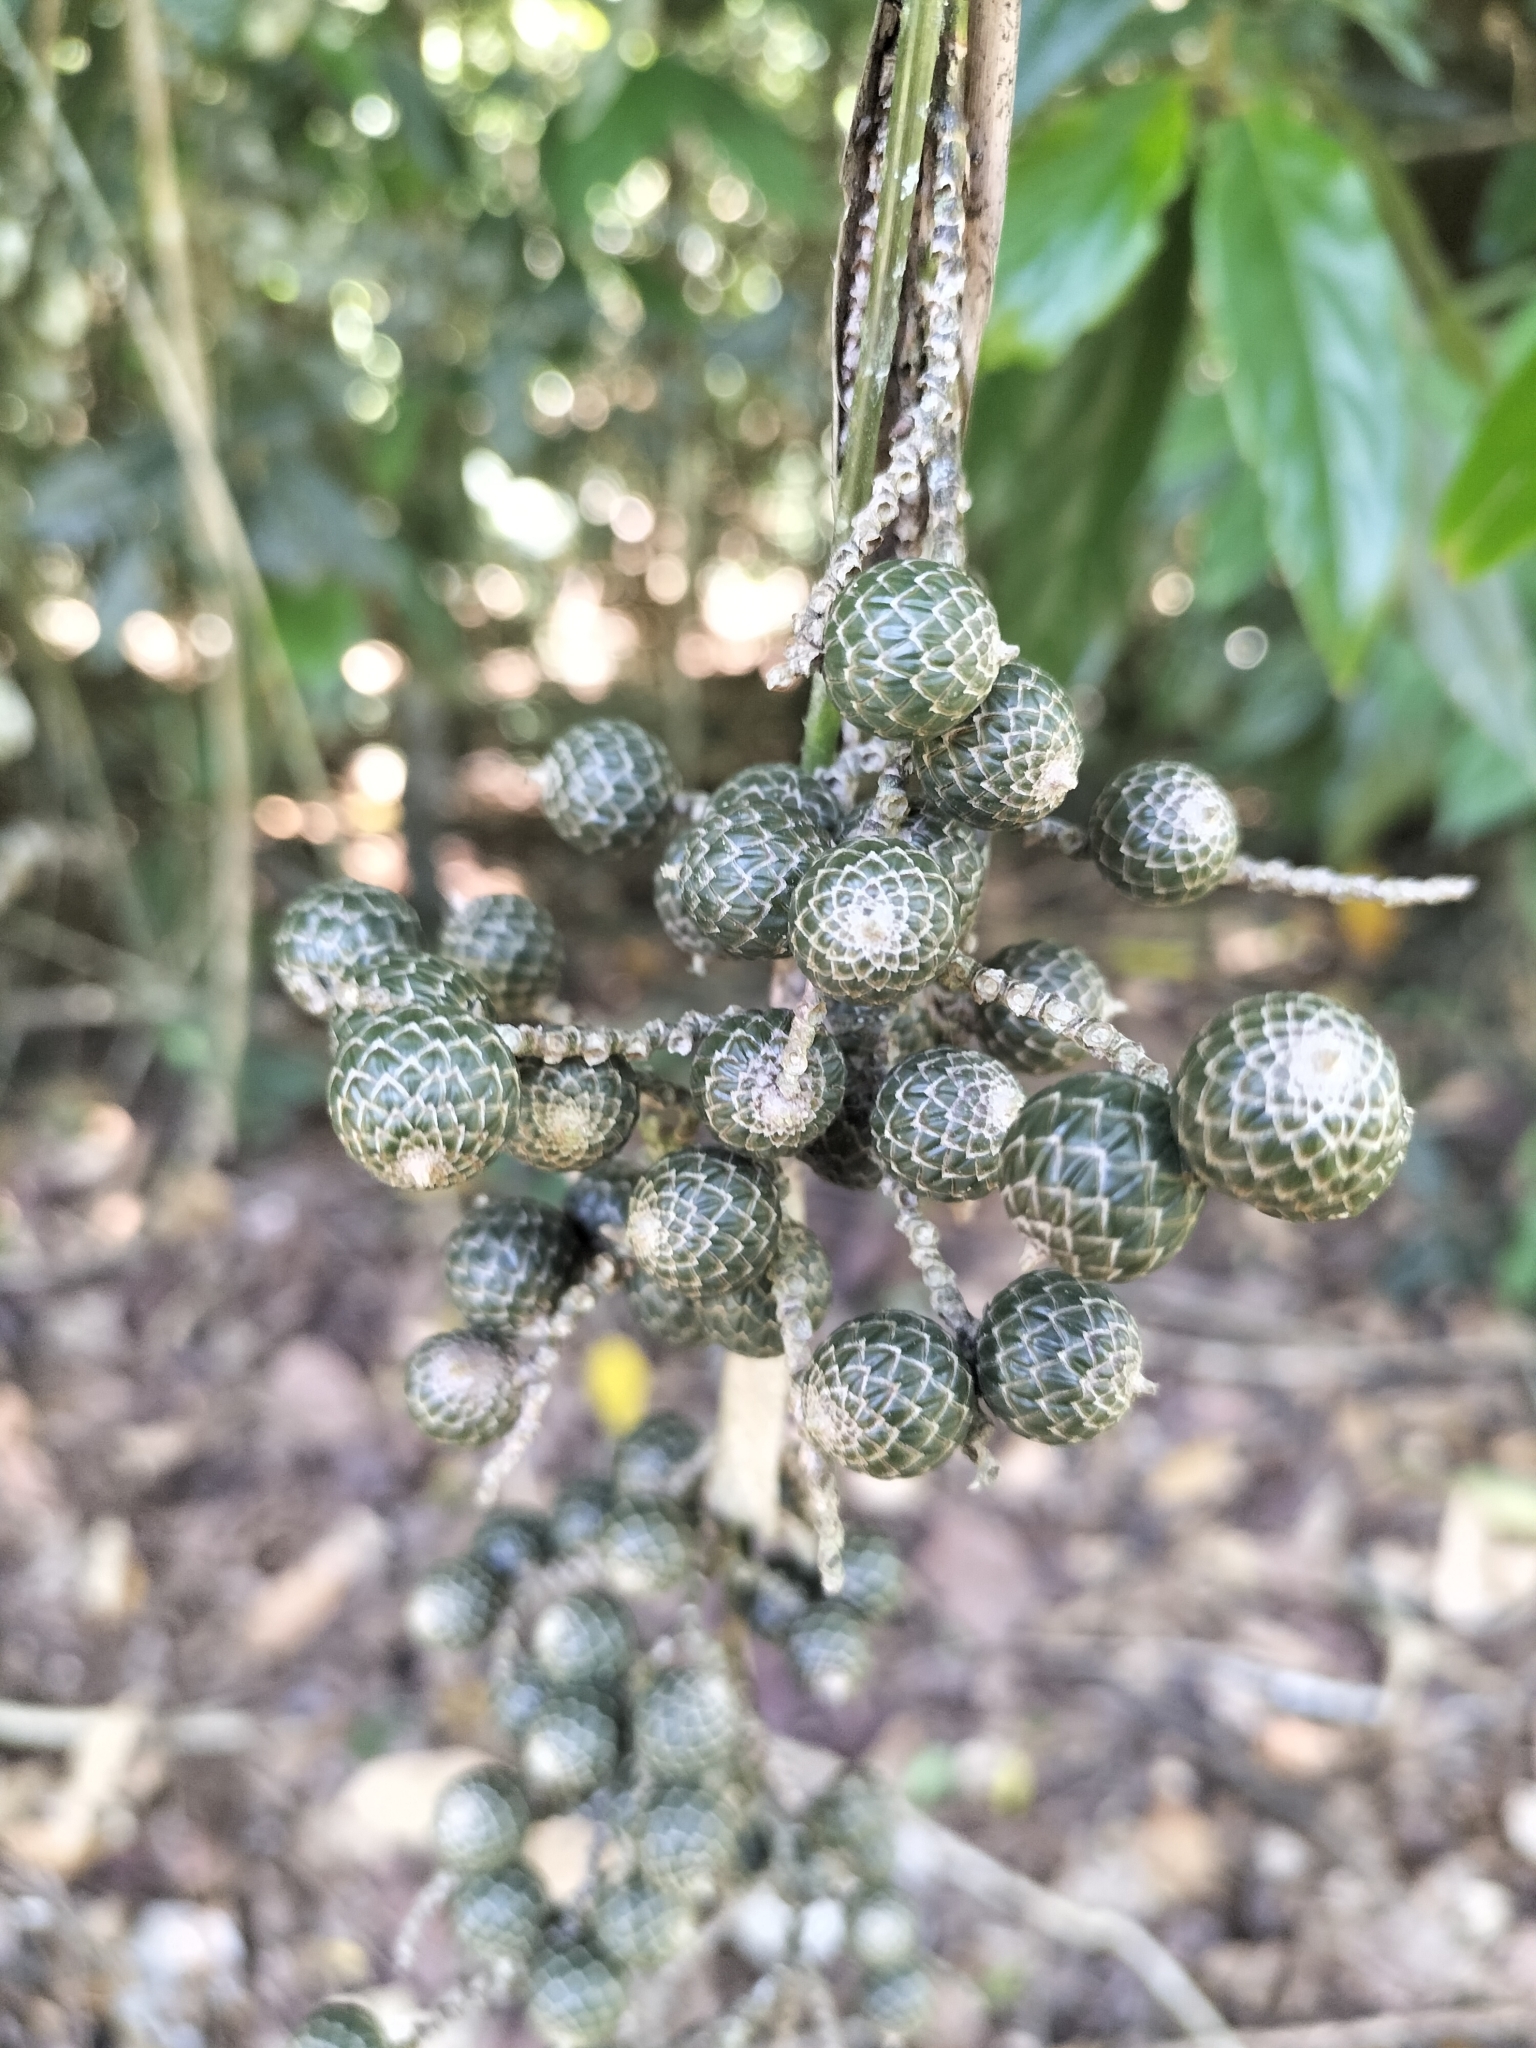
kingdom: Plantae
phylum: Tracheophyta
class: Liliopsida
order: Arecales
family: Arecaceae
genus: Calamus
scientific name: Calamus caryotoides
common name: Fishtail lawyer cane
